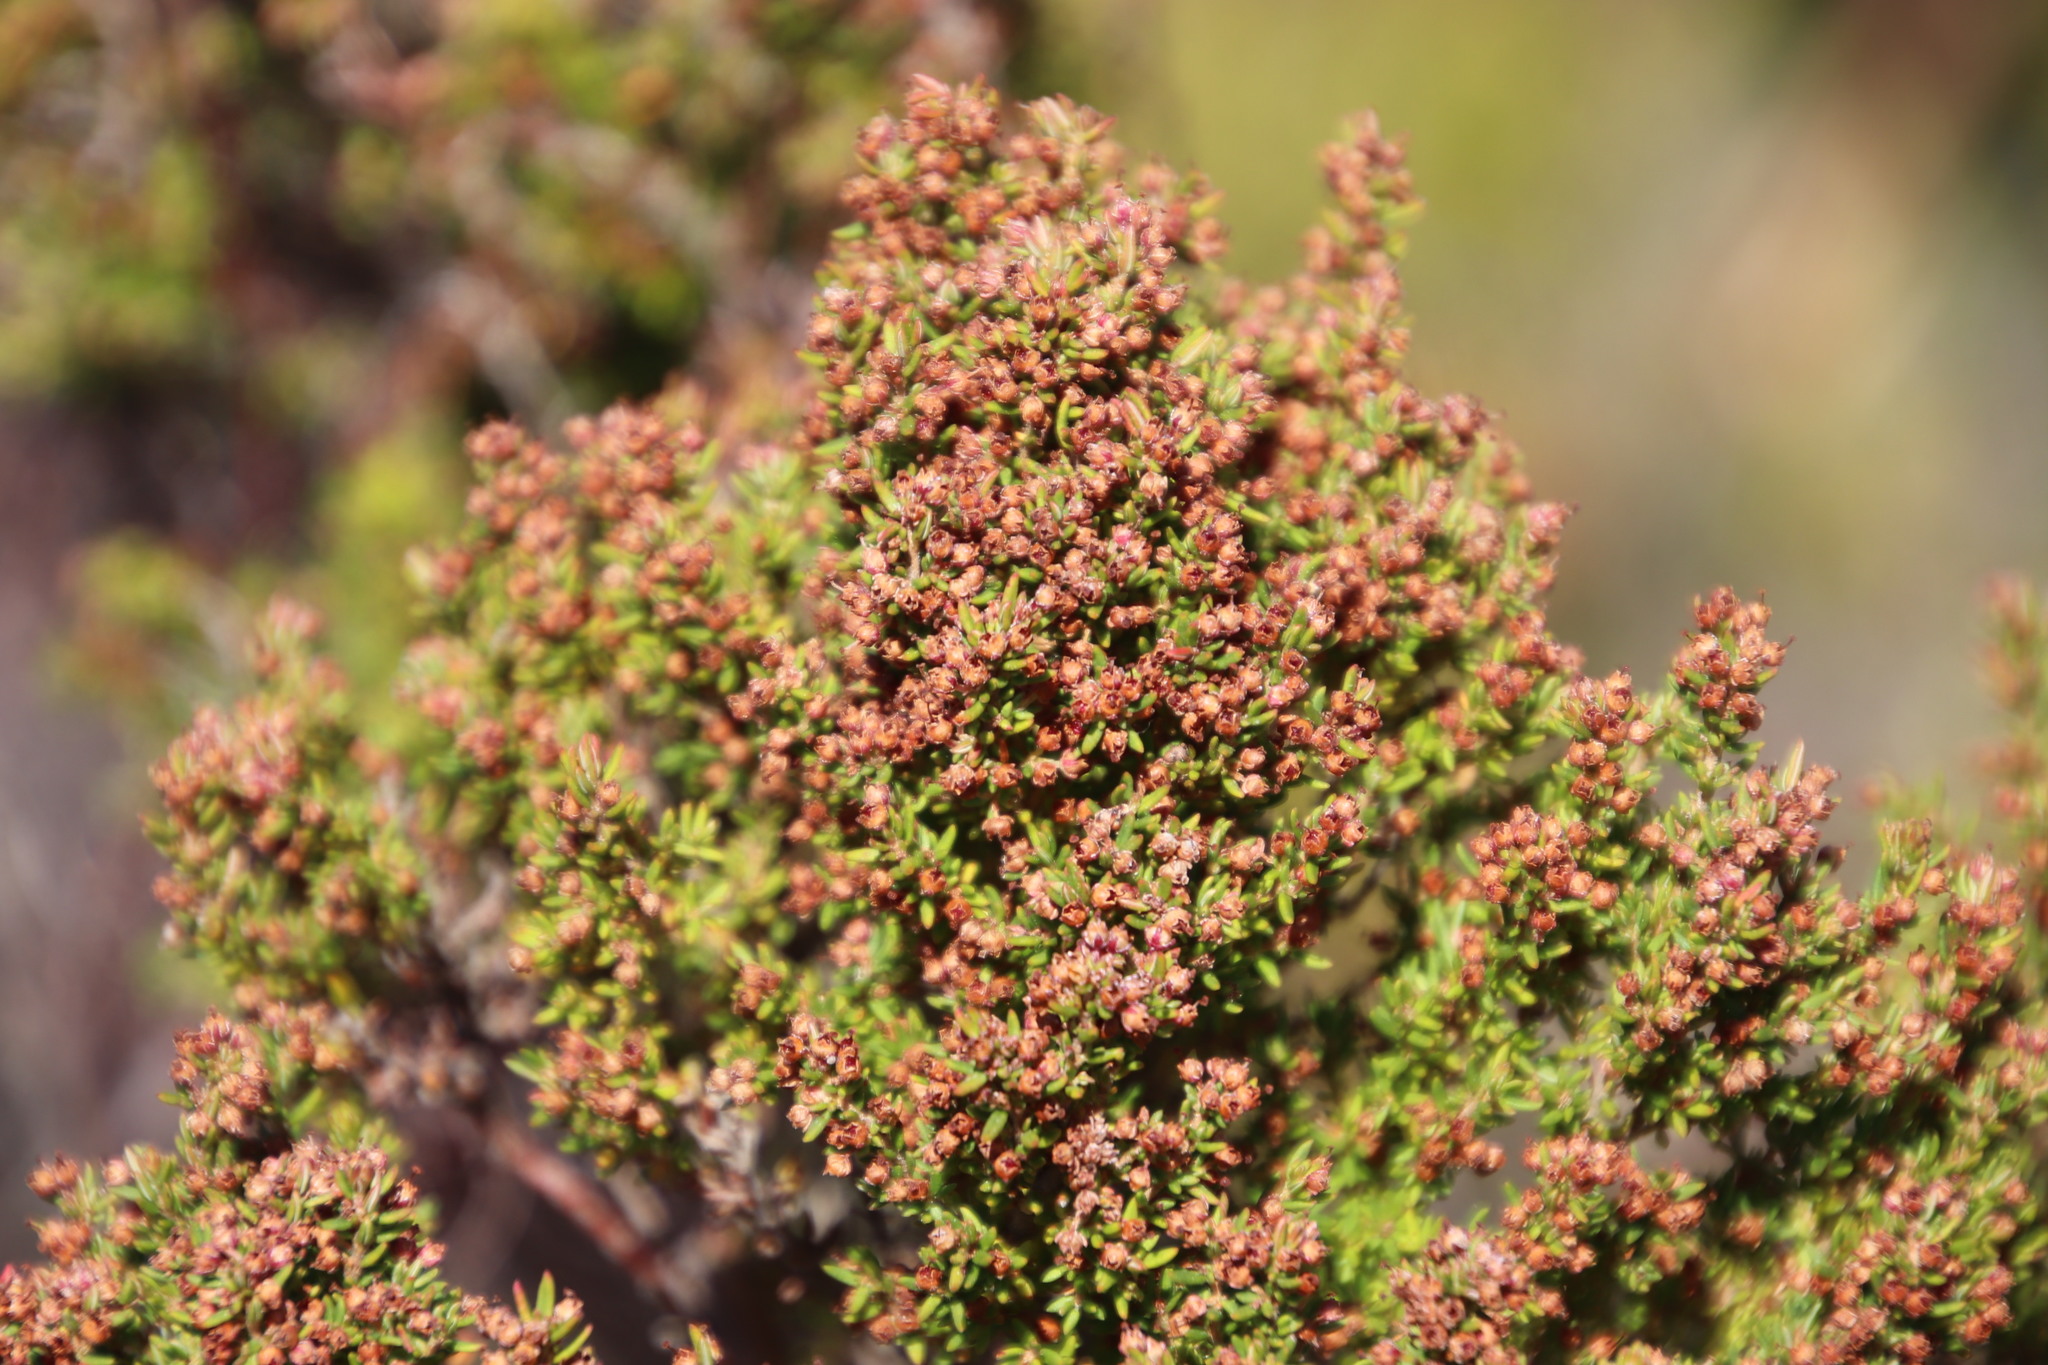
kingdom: Plantae
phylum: Tracheophyta
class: Magnoliopsida
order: Ericales
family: Ericaceae
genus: Erica
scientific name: Erica hispidula
